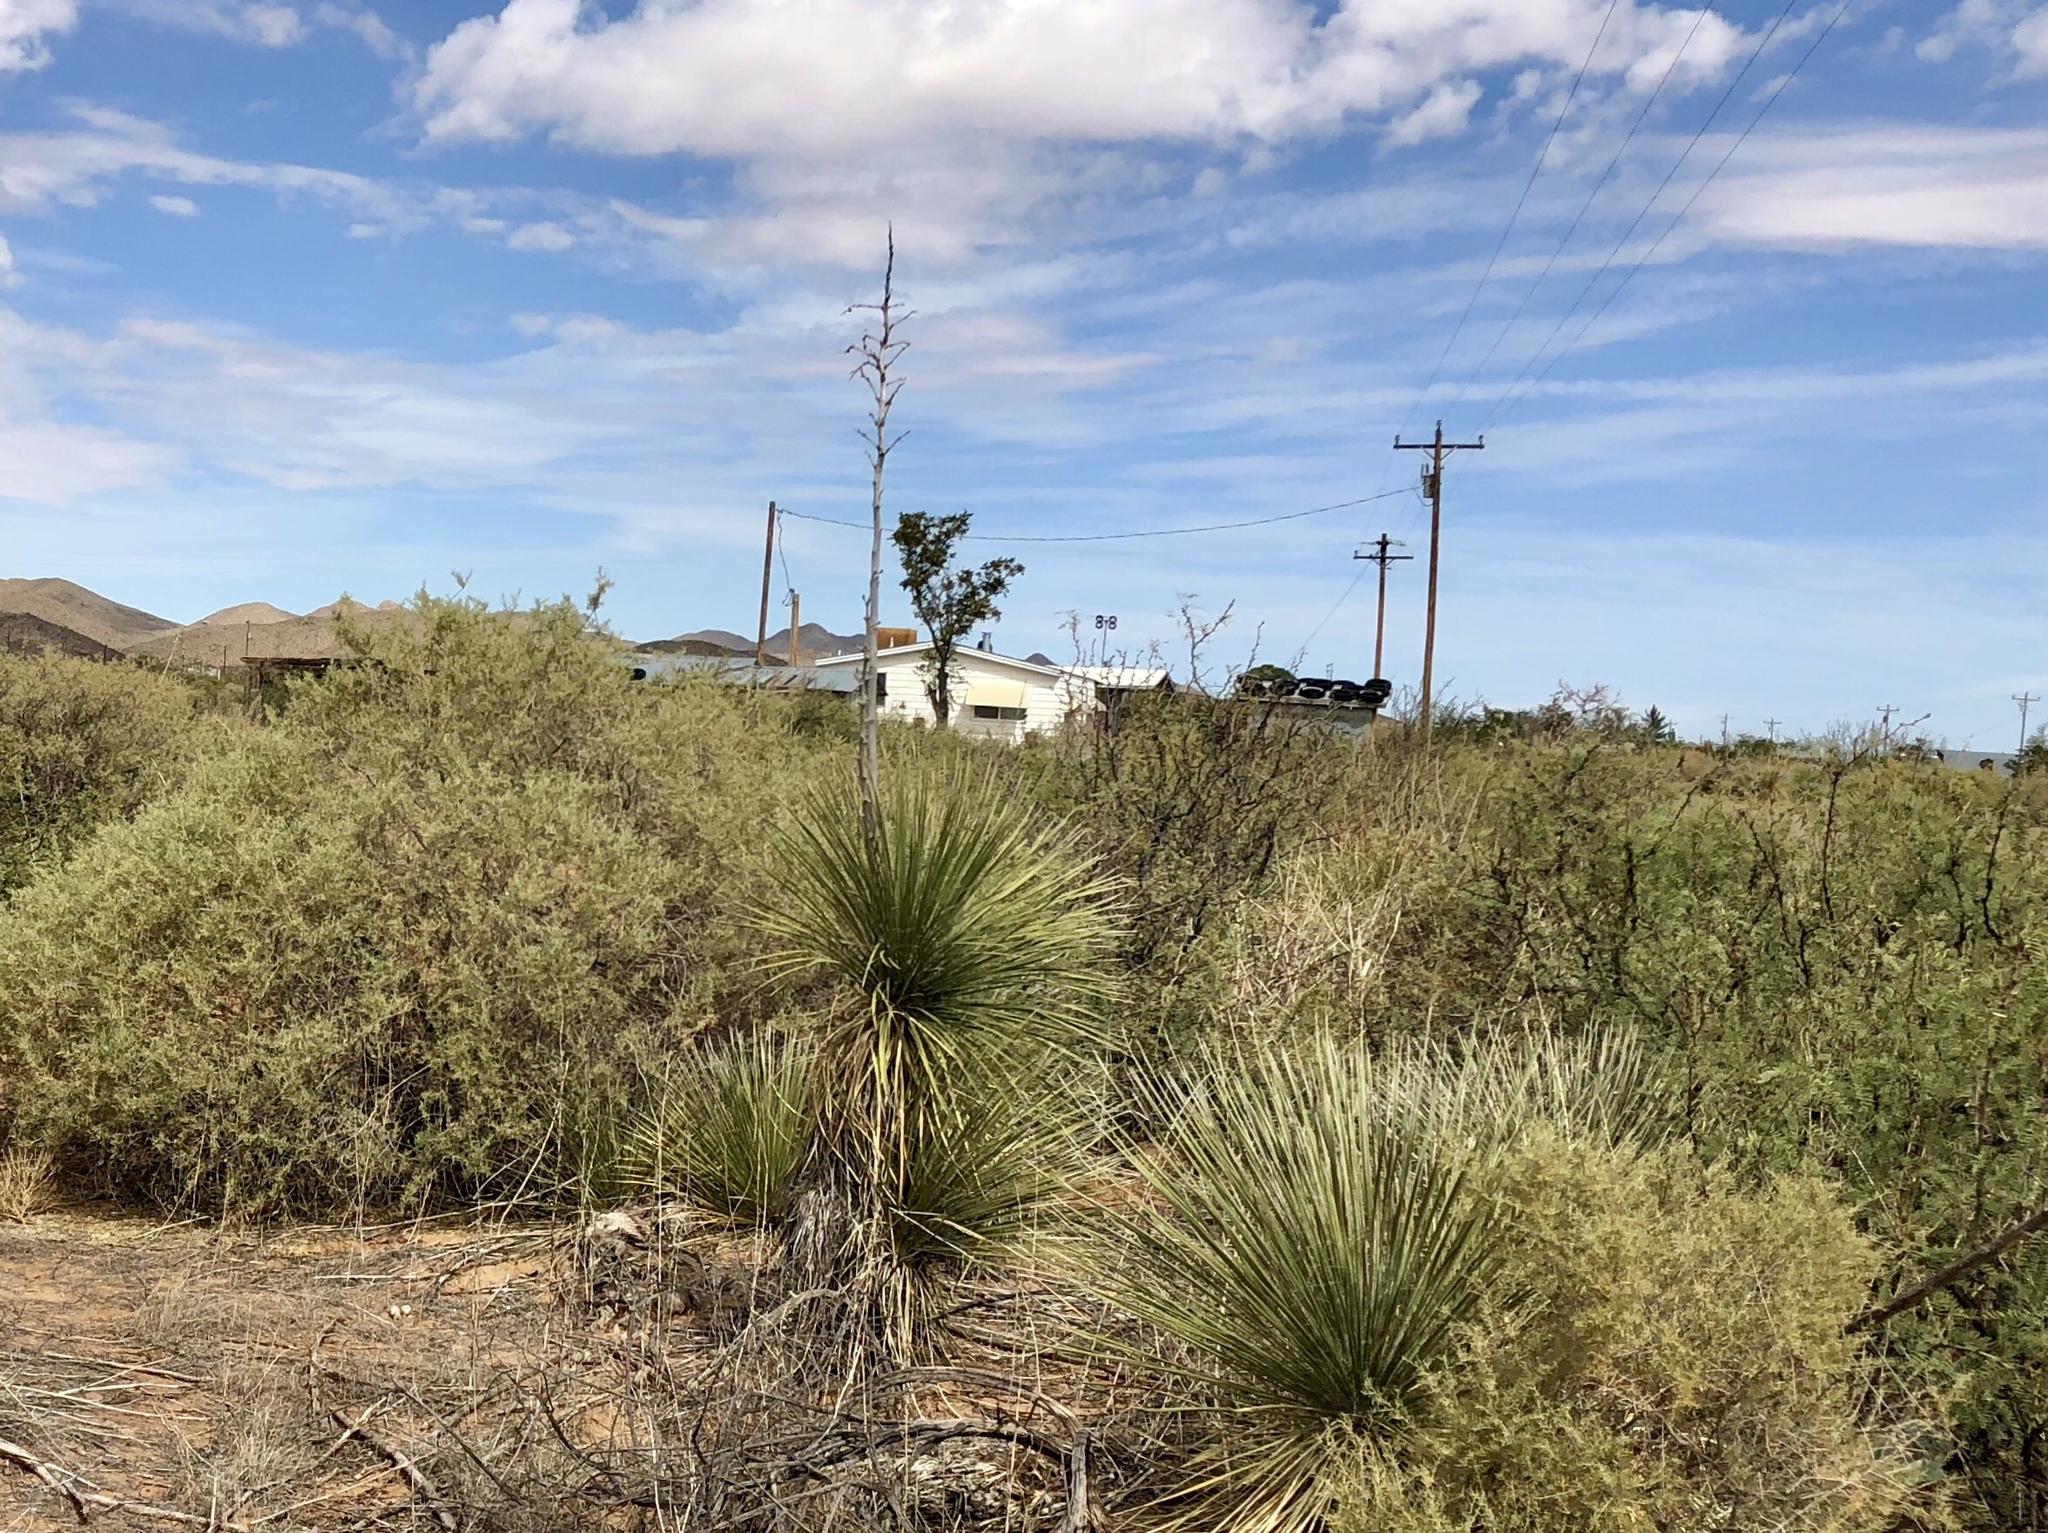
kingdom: Plantae
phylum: Tracheophyta
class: Liliopsida
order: Asparagales
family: Asparagaceae
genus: Yucca
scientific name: Yucca elata
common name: Palmella
